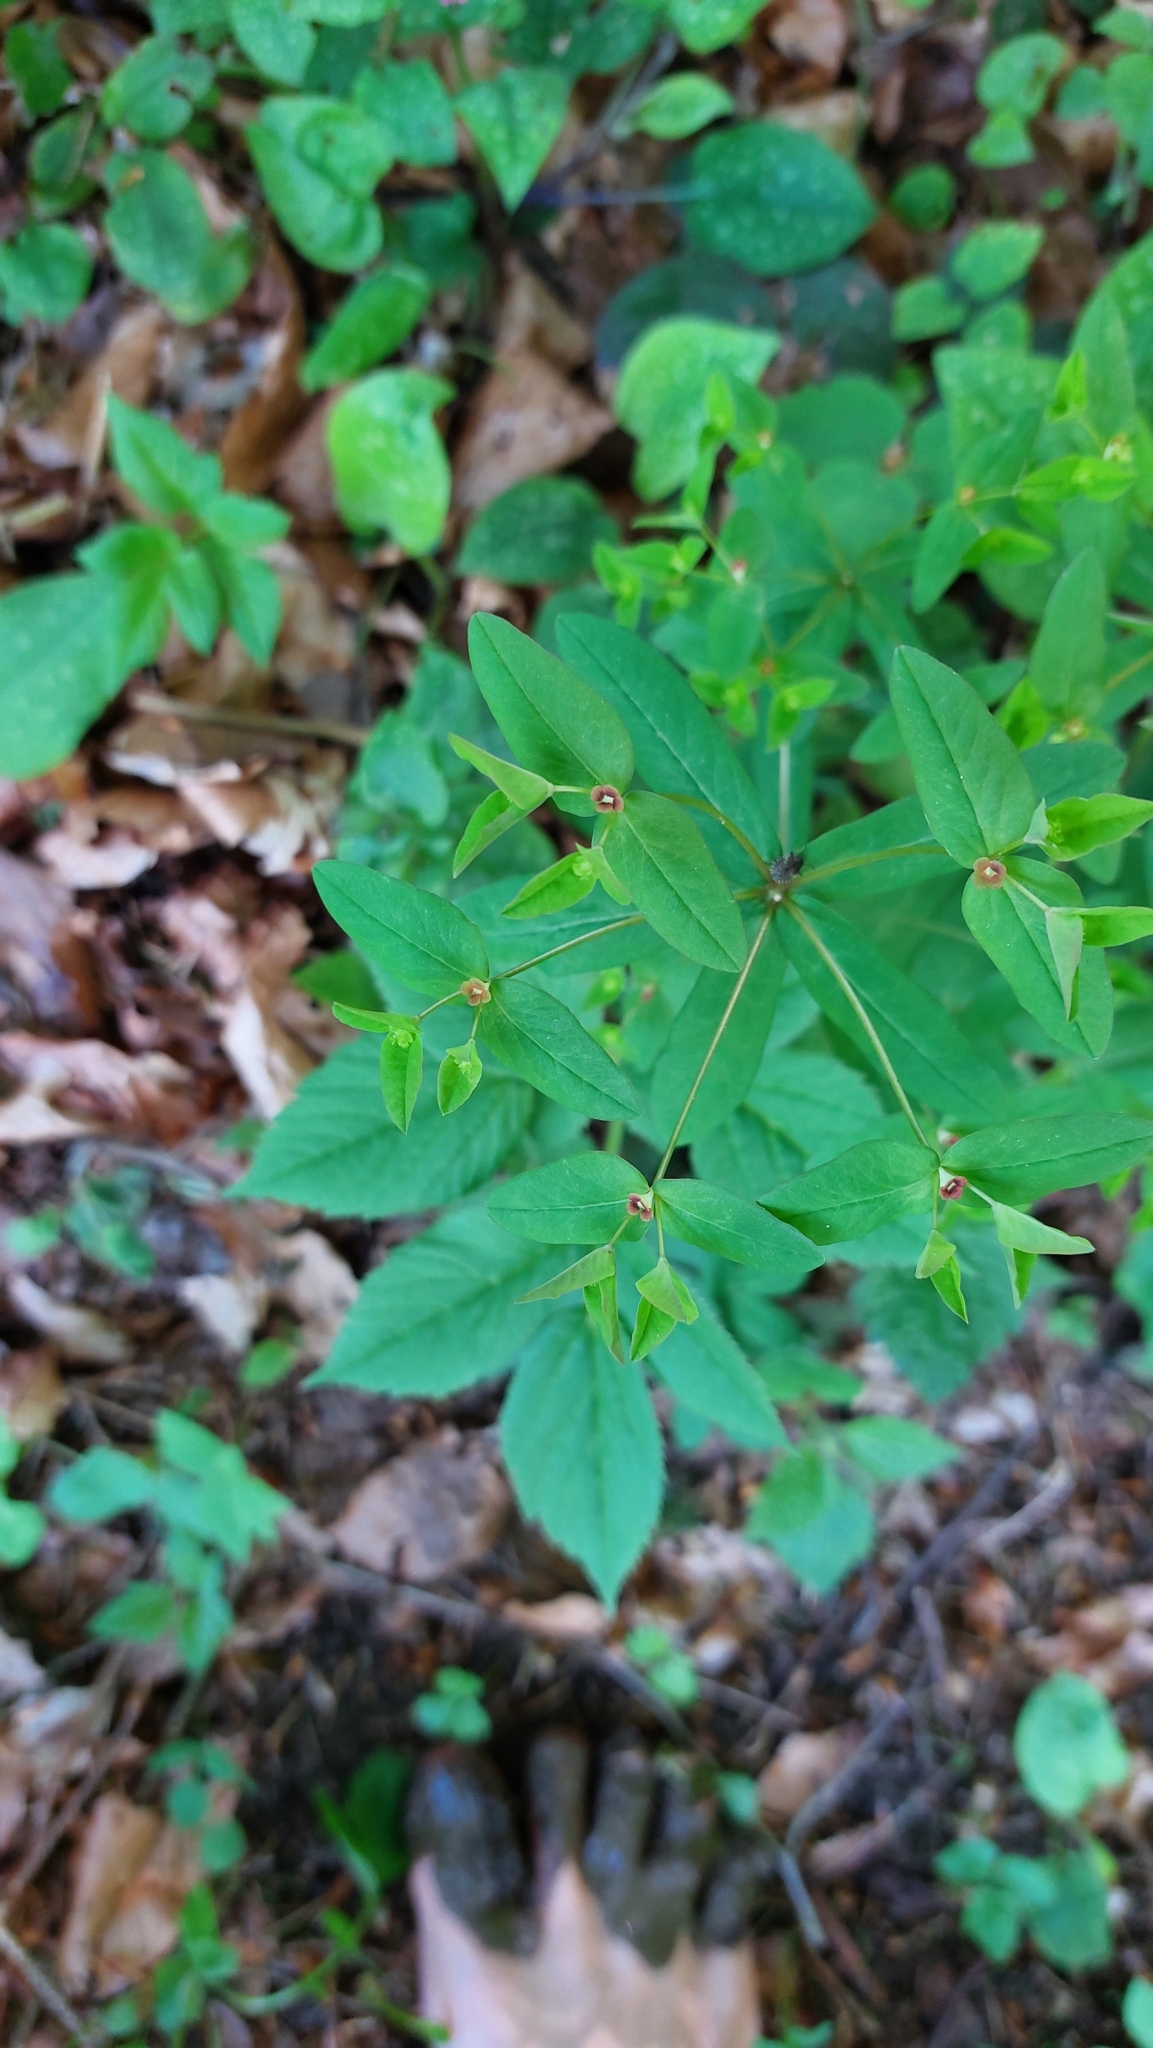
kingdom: Plantae
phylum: Tracheophyta
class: Magnoliopsida
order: Malpighiales
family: Euphorbiaceae
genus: Euphorbia
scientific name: Euphorbia dulcis
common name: Sweet spurge
